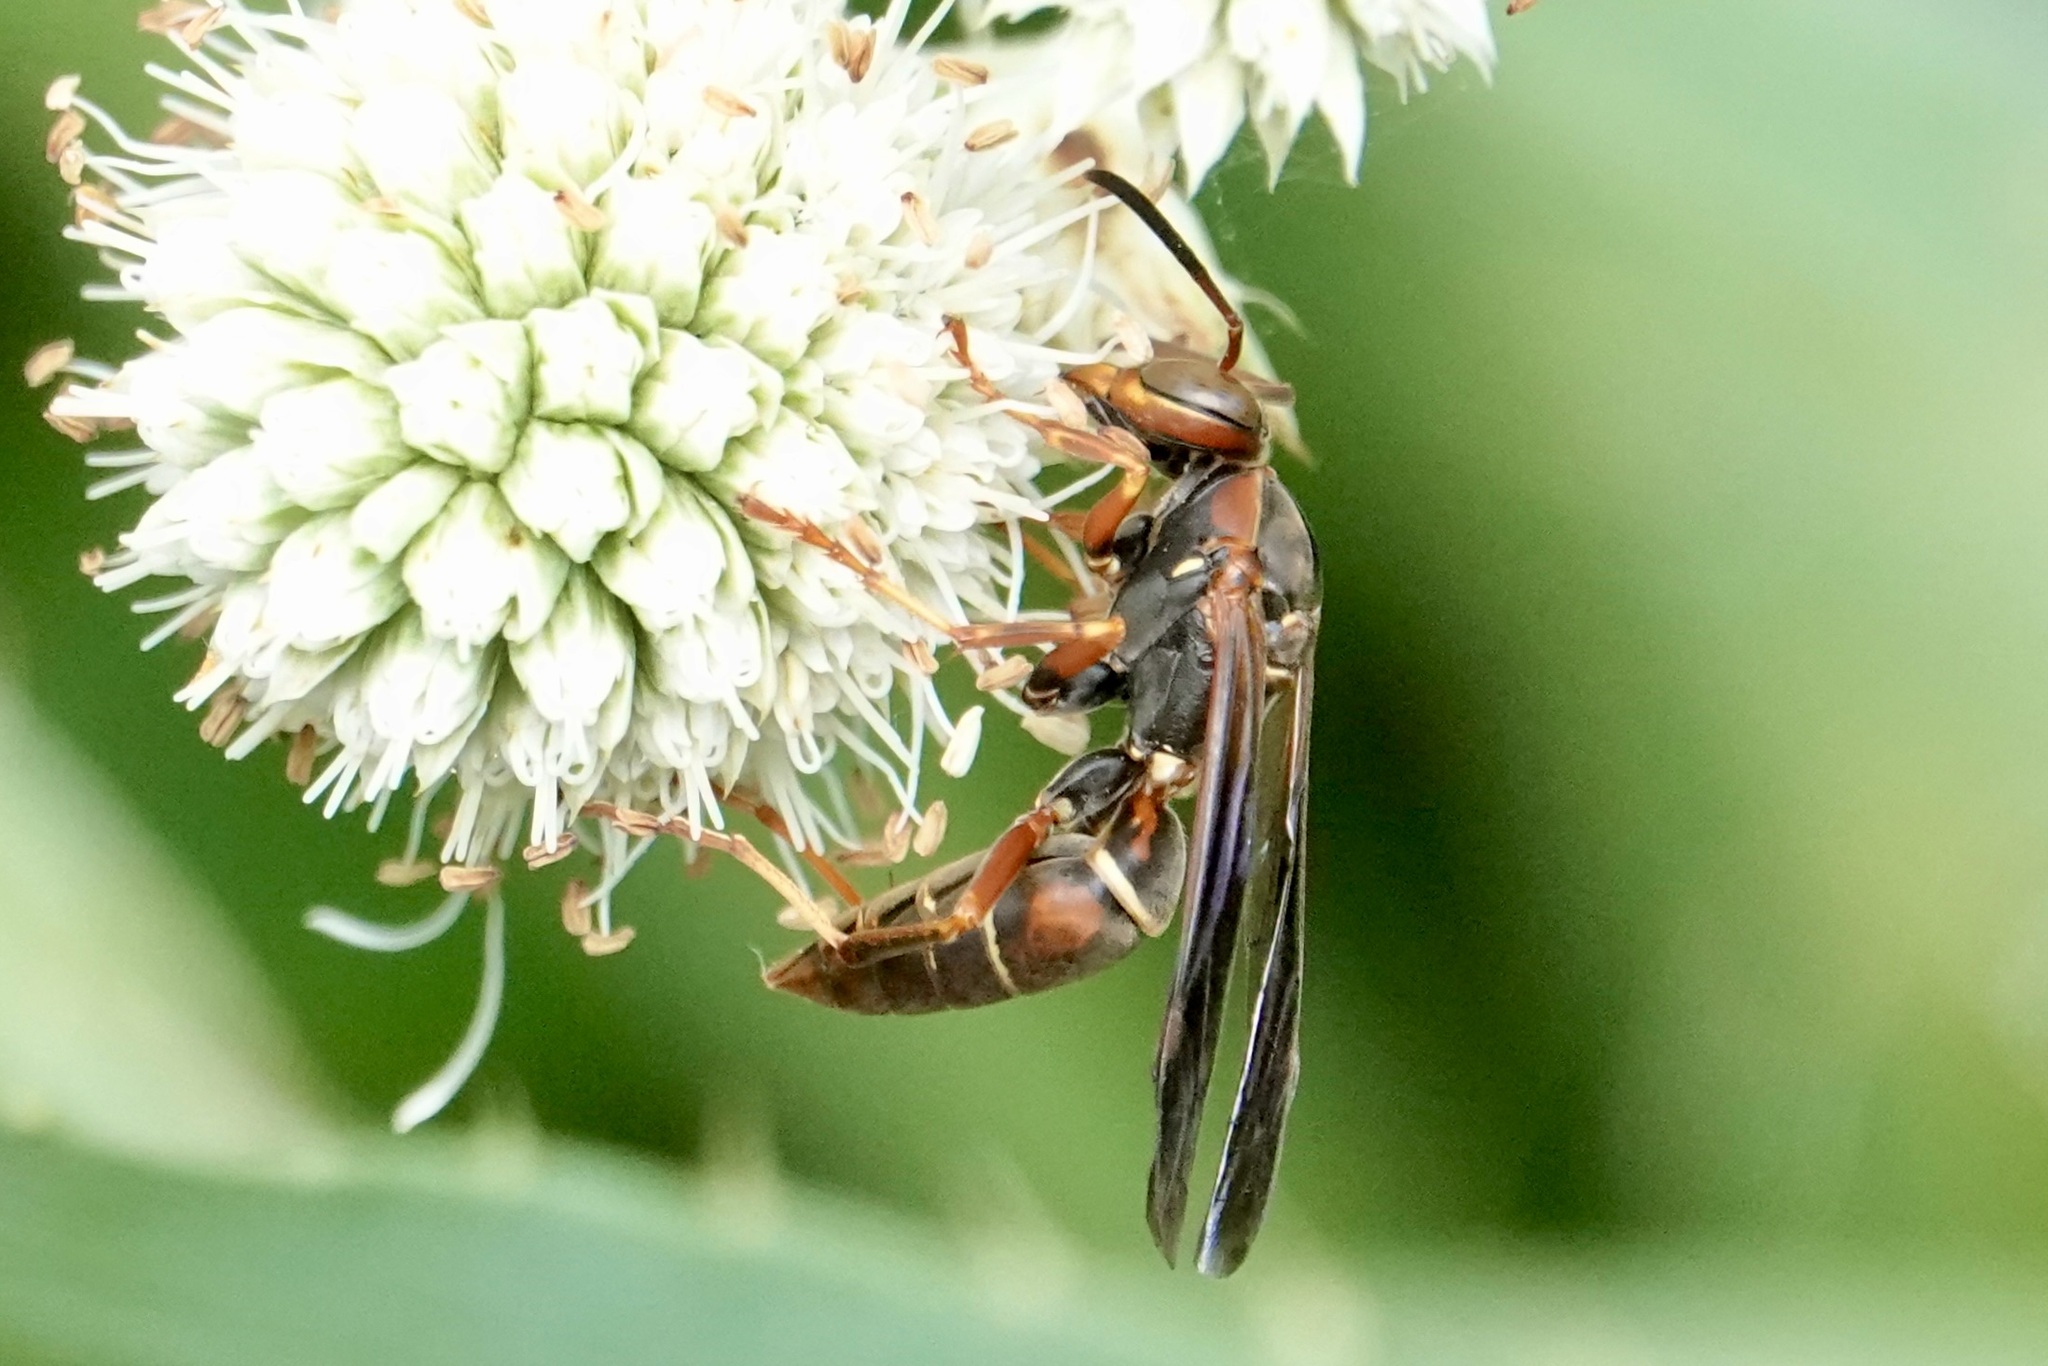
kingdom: Animalia
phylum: Arthropoda
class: Insecta
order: Hymenoptera
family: Eumenidae
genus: Polistes
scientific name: Polistes fuscatus
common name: Dark paper wasp
